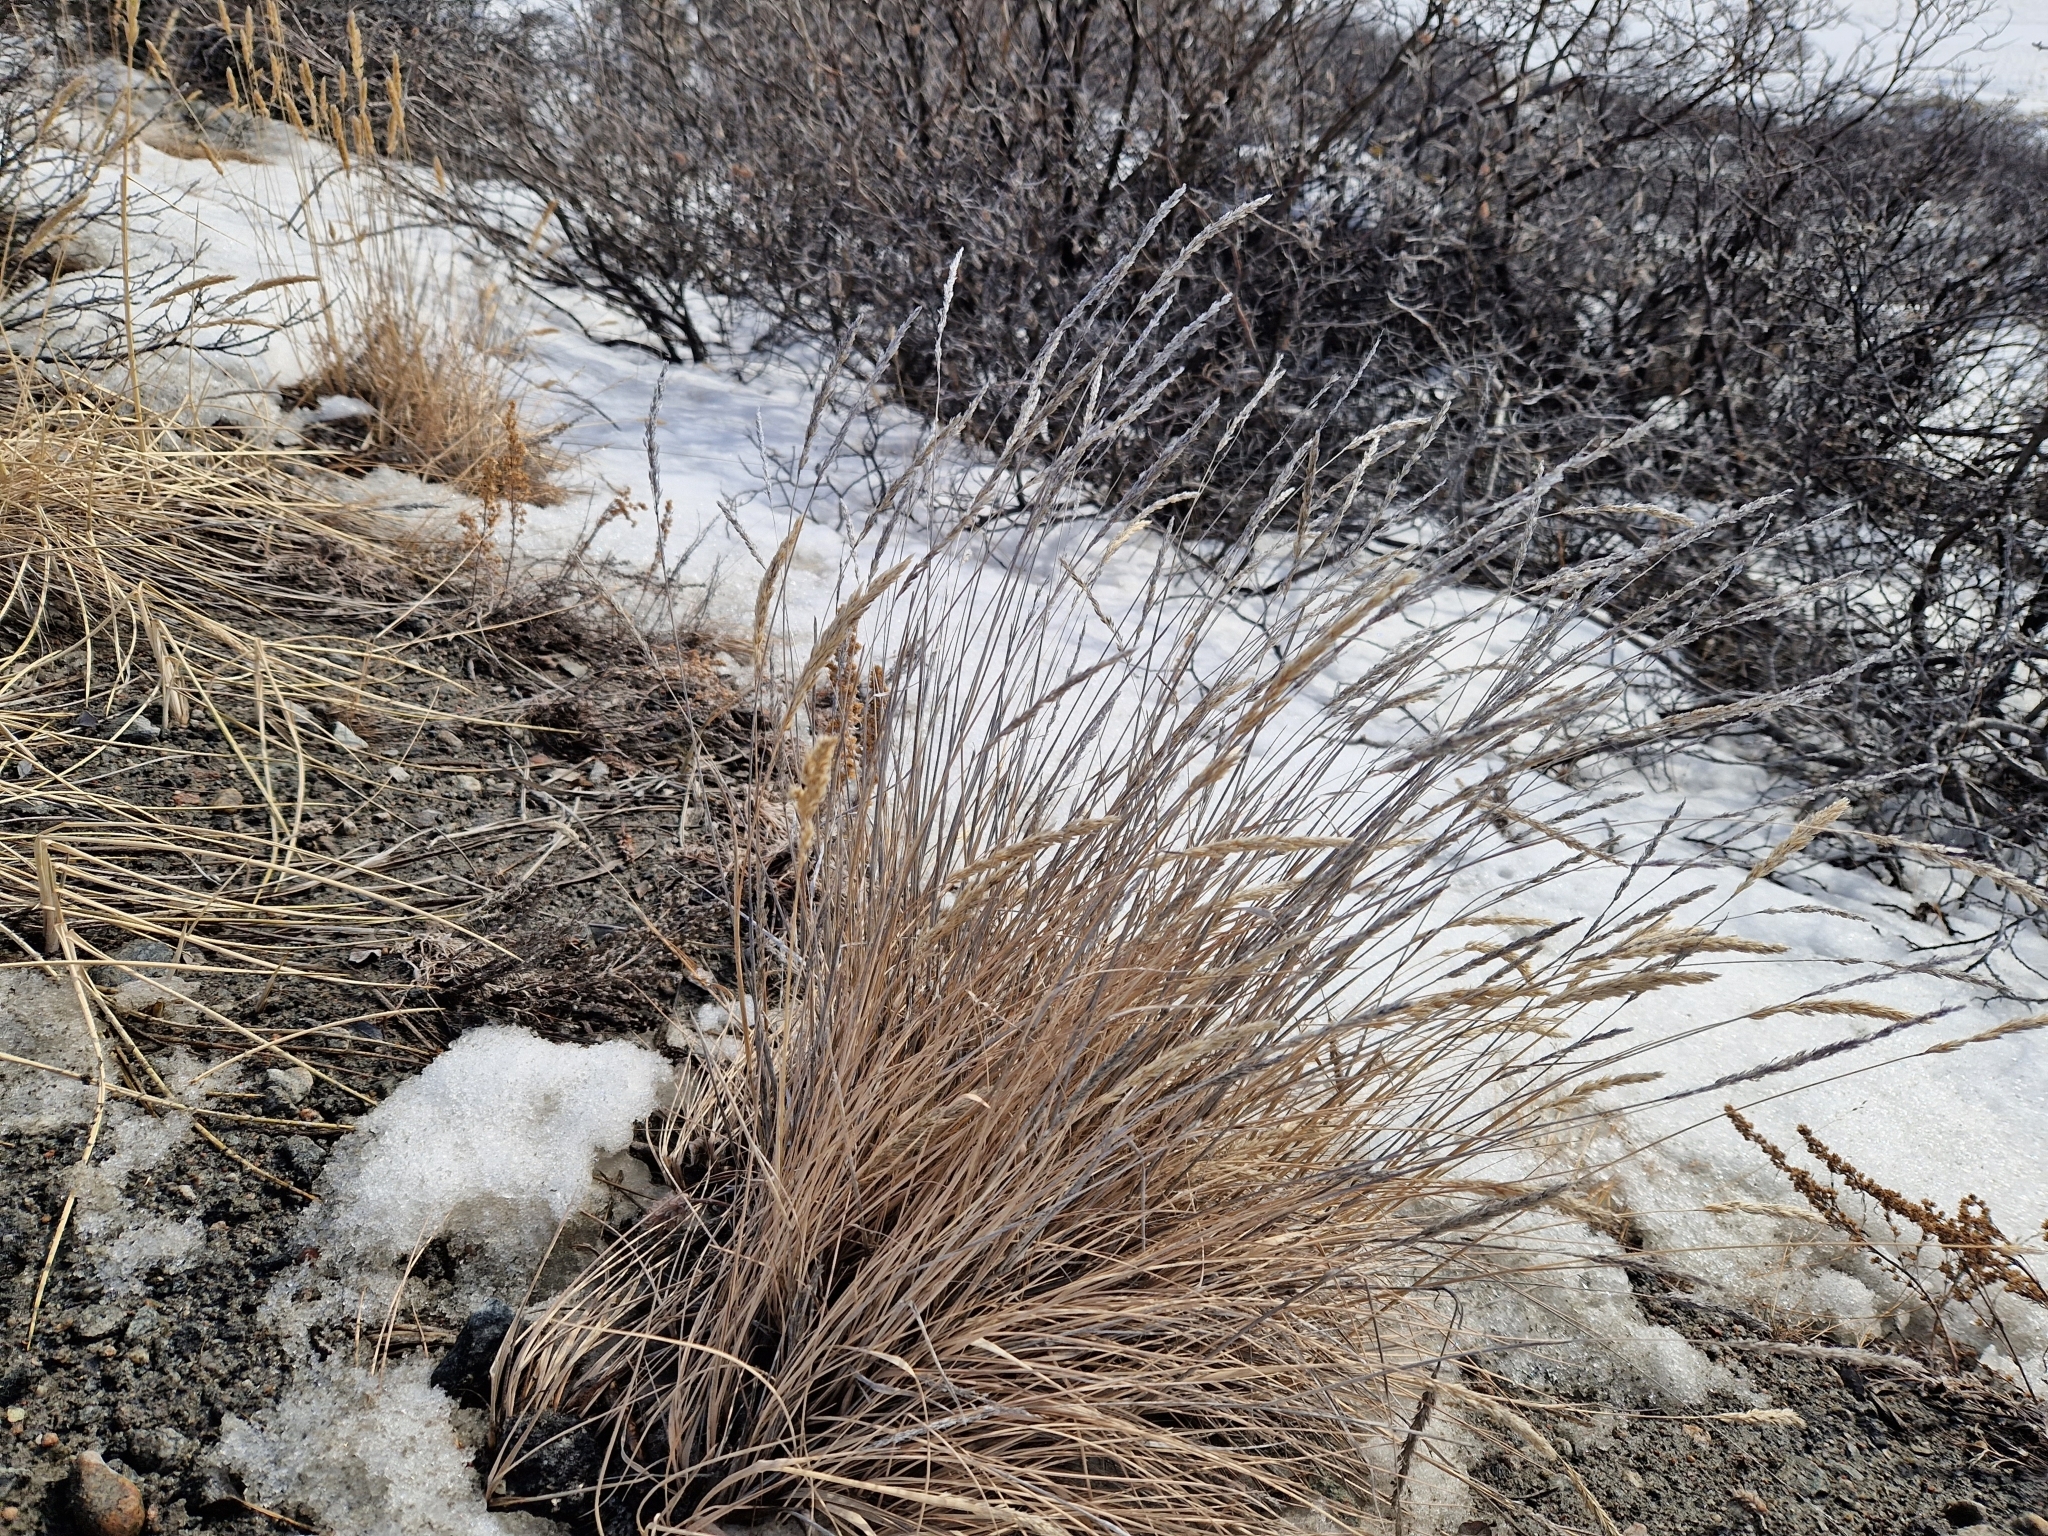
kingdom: Plantae
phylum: Tracheophyta
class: Liliopsida
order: Poales
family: Poaceae
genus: Poa
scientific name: Poa glauca
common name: Glaucous bluegrass
